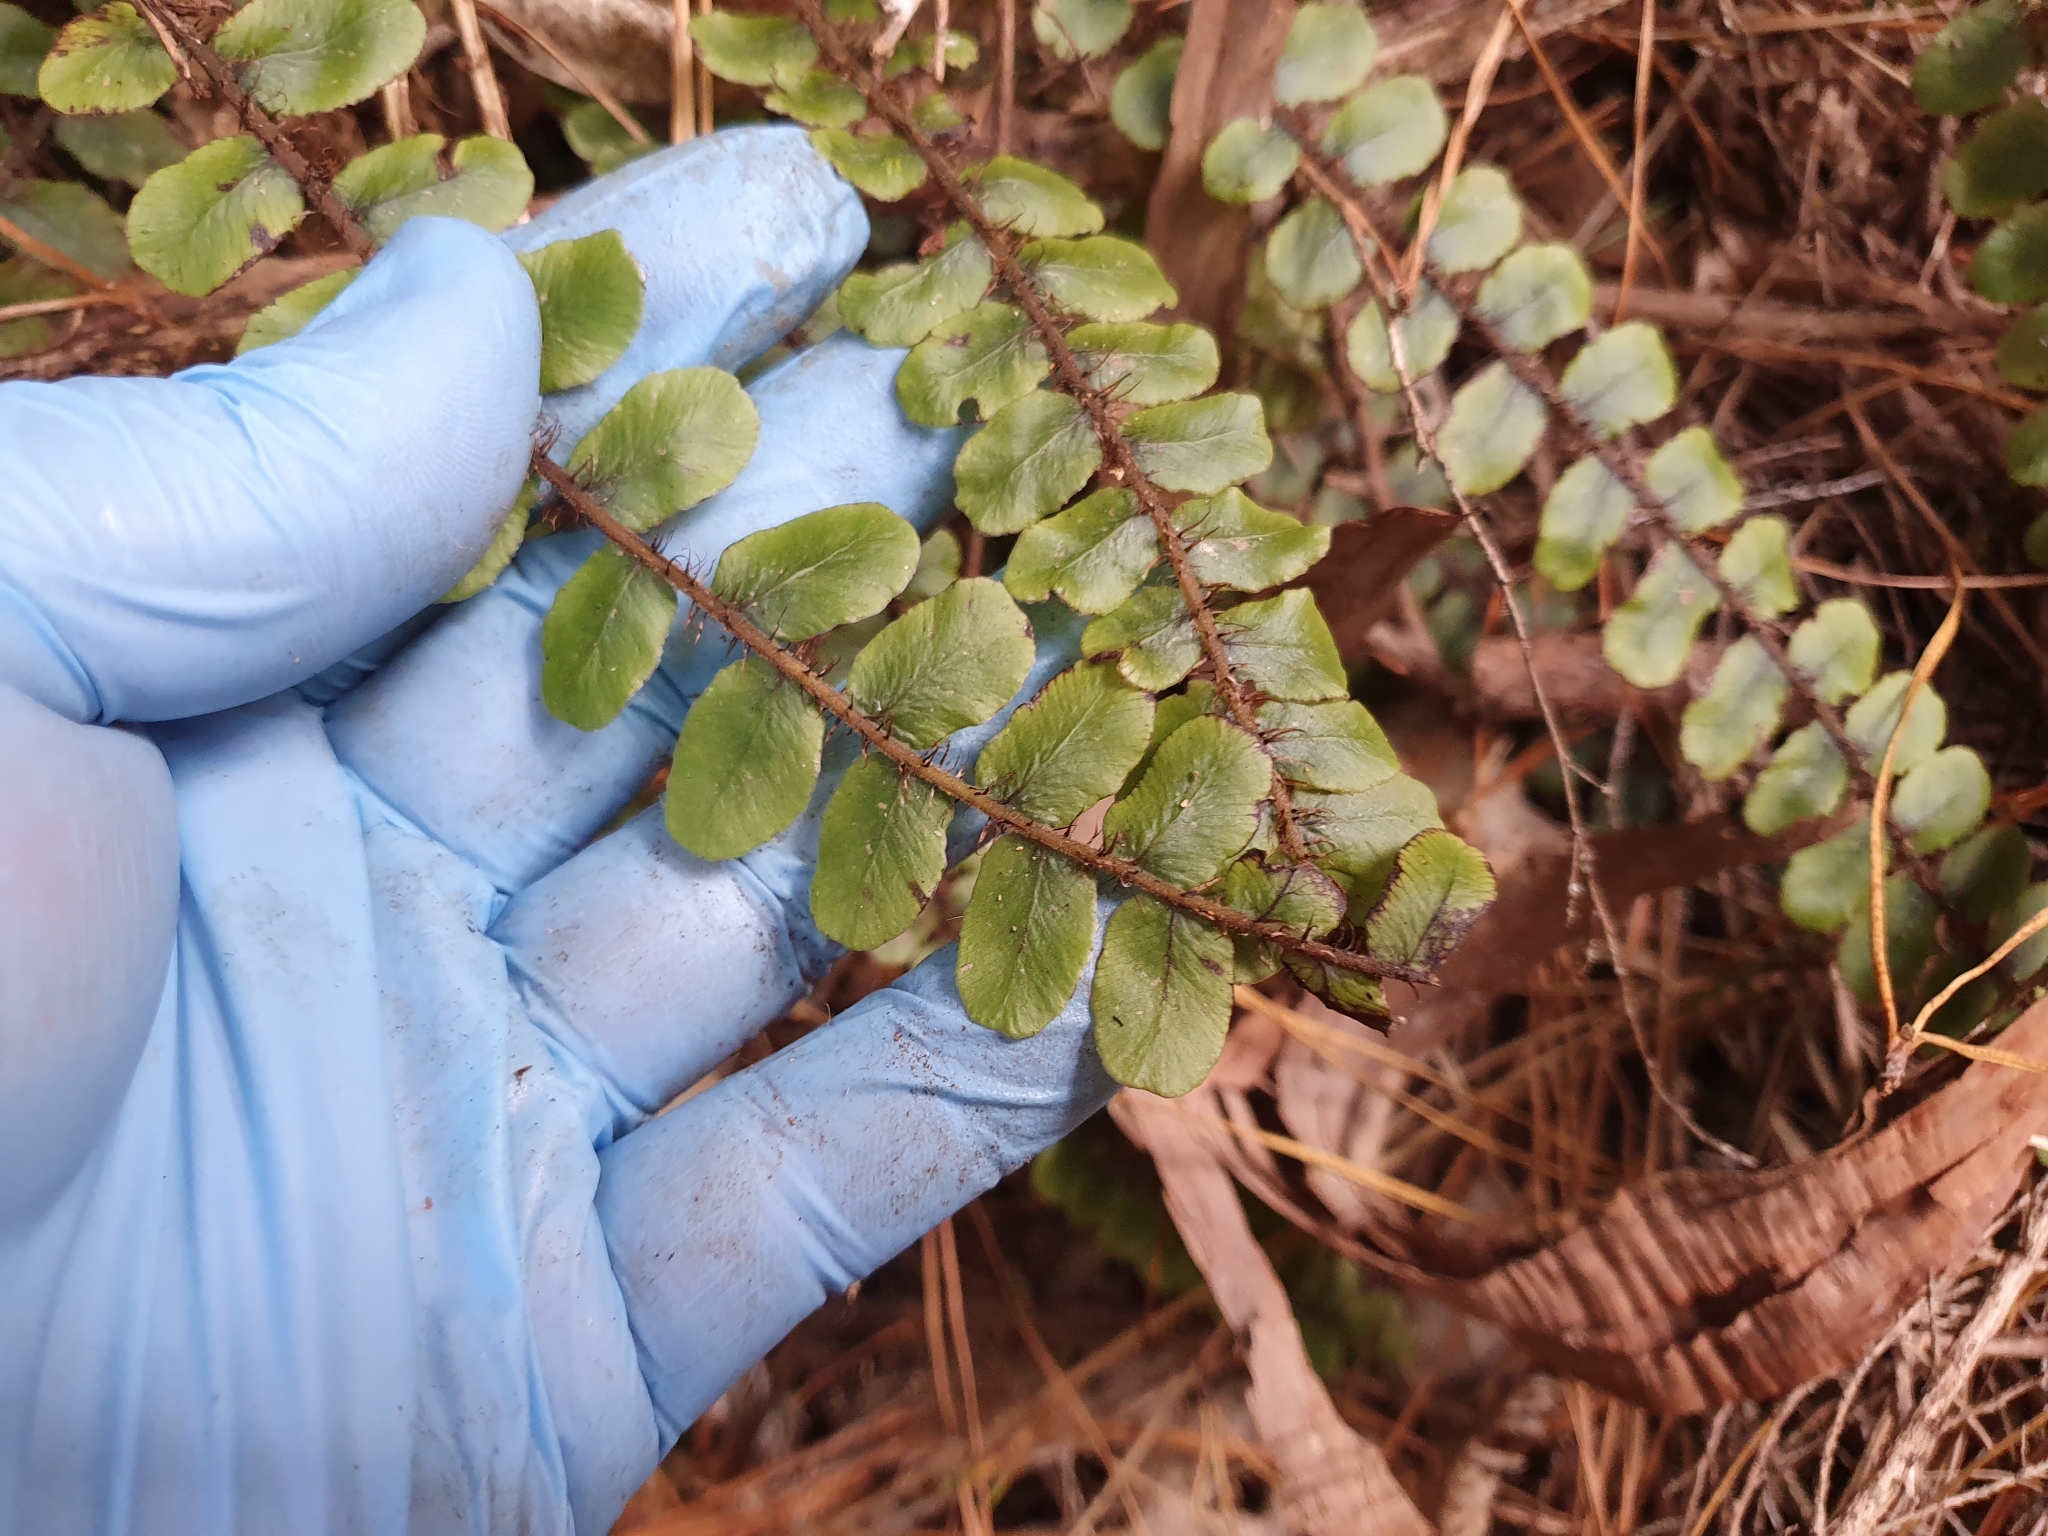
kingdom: Plantae
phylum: Tracheophyta
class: Polypodiopsida
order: Polypodiales
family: Blechnaceae
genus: Cranfillia
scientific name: Cranfillia fluviatilis
